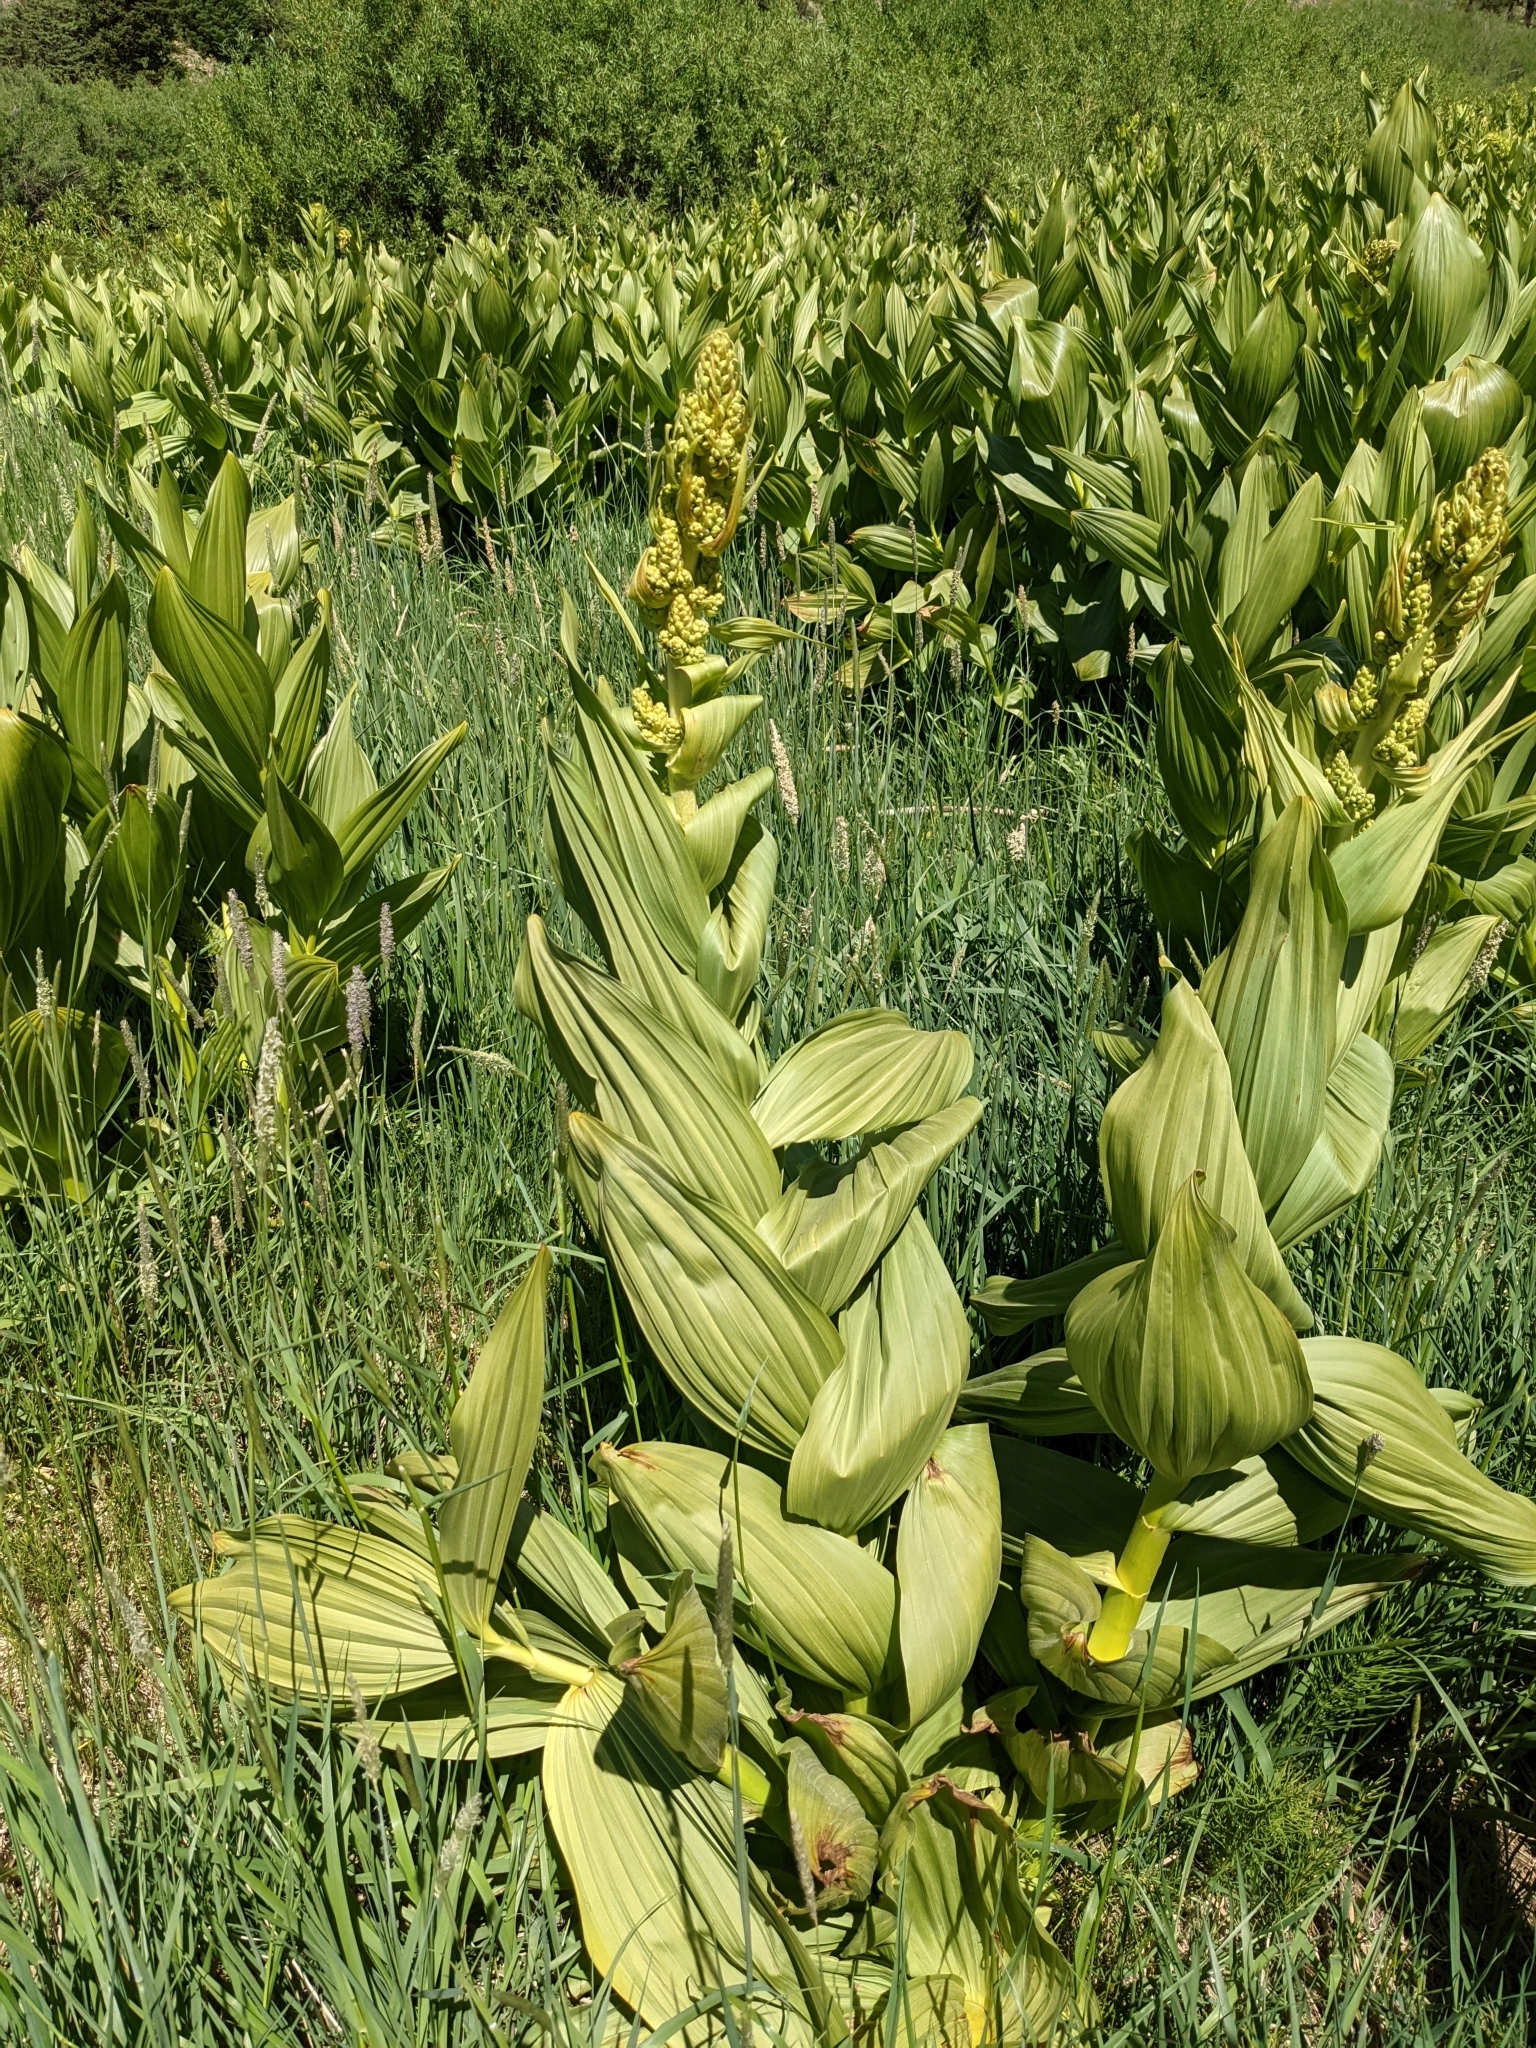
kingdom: Plantae
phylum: Tracheophyta
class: Liliopsida
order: Liliales
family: Melanthiaceae
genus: Veratrum
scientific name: Veratrum californicum
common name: California veratrum
